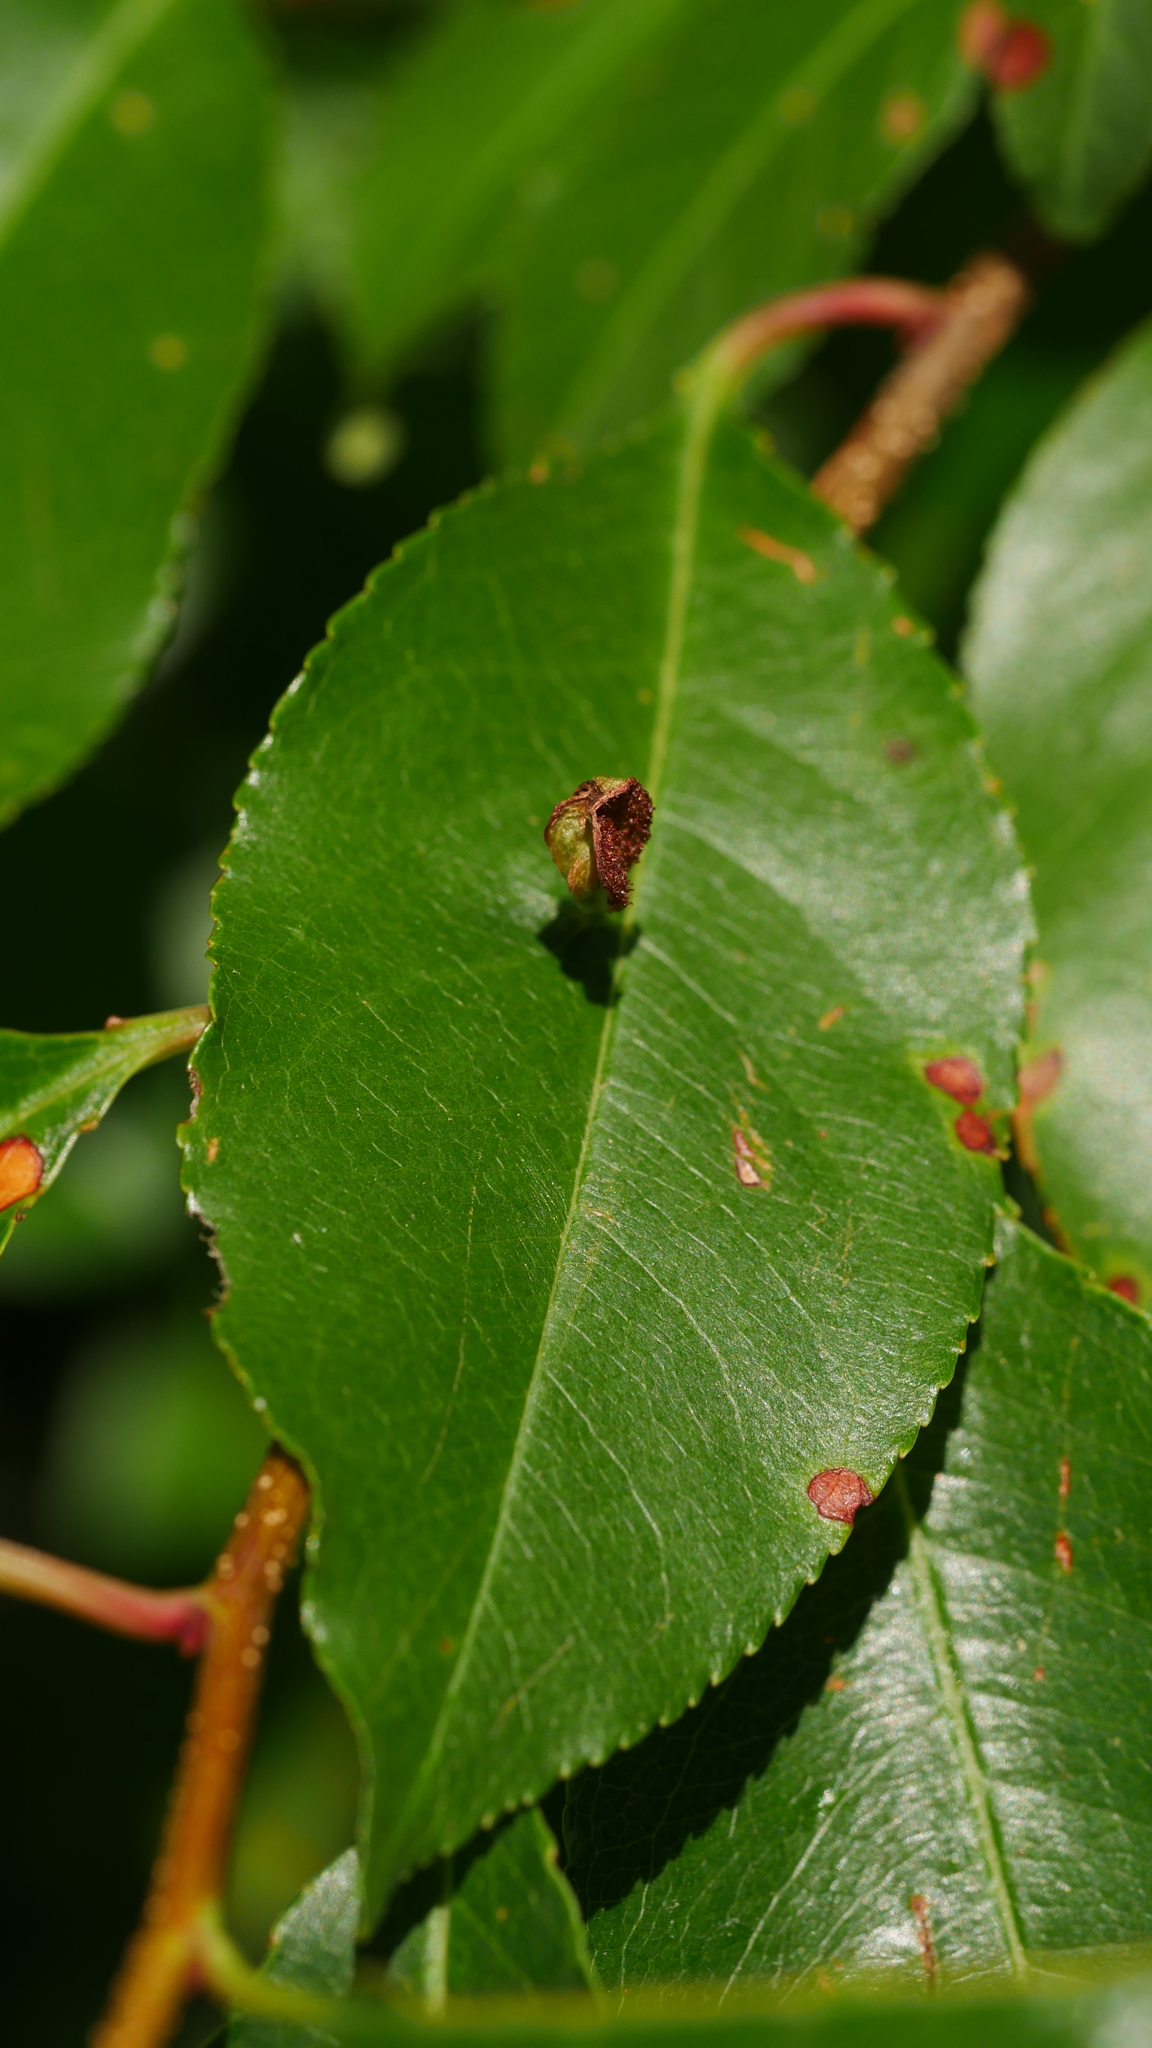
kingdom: Animalia
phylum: Arthropoda
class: Arachnida
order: Trombidiformes
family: Eriophyidae
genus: Eriophyes
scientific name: Eriophyes
